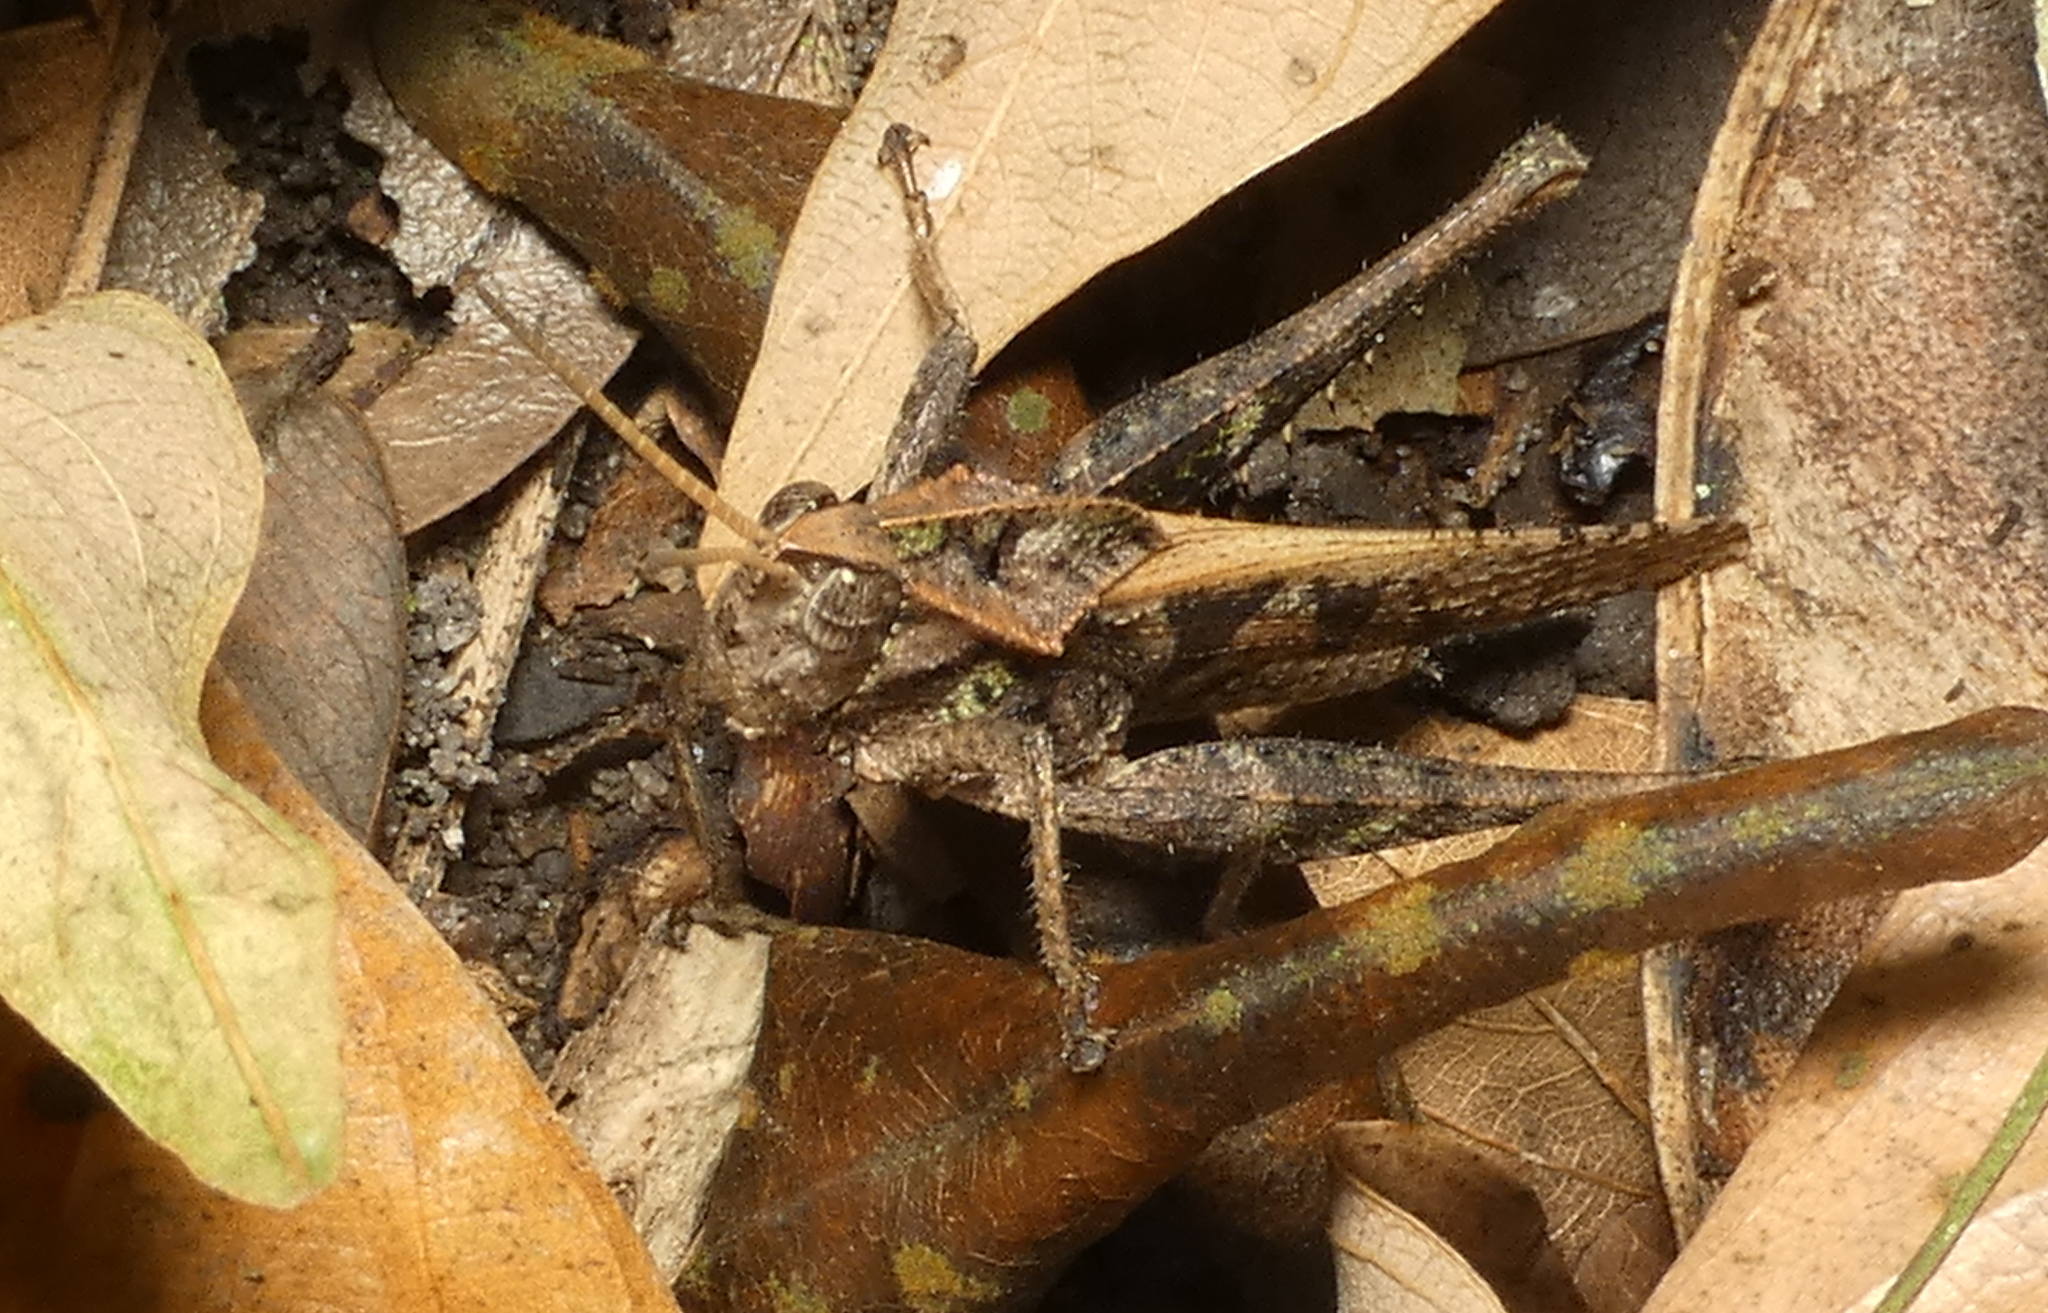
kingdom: Animalia
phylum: Arthropoda
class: Insecta
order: Orthoptera
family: Romaleidae
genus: Xyleus
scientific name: Xyleus discoideus
